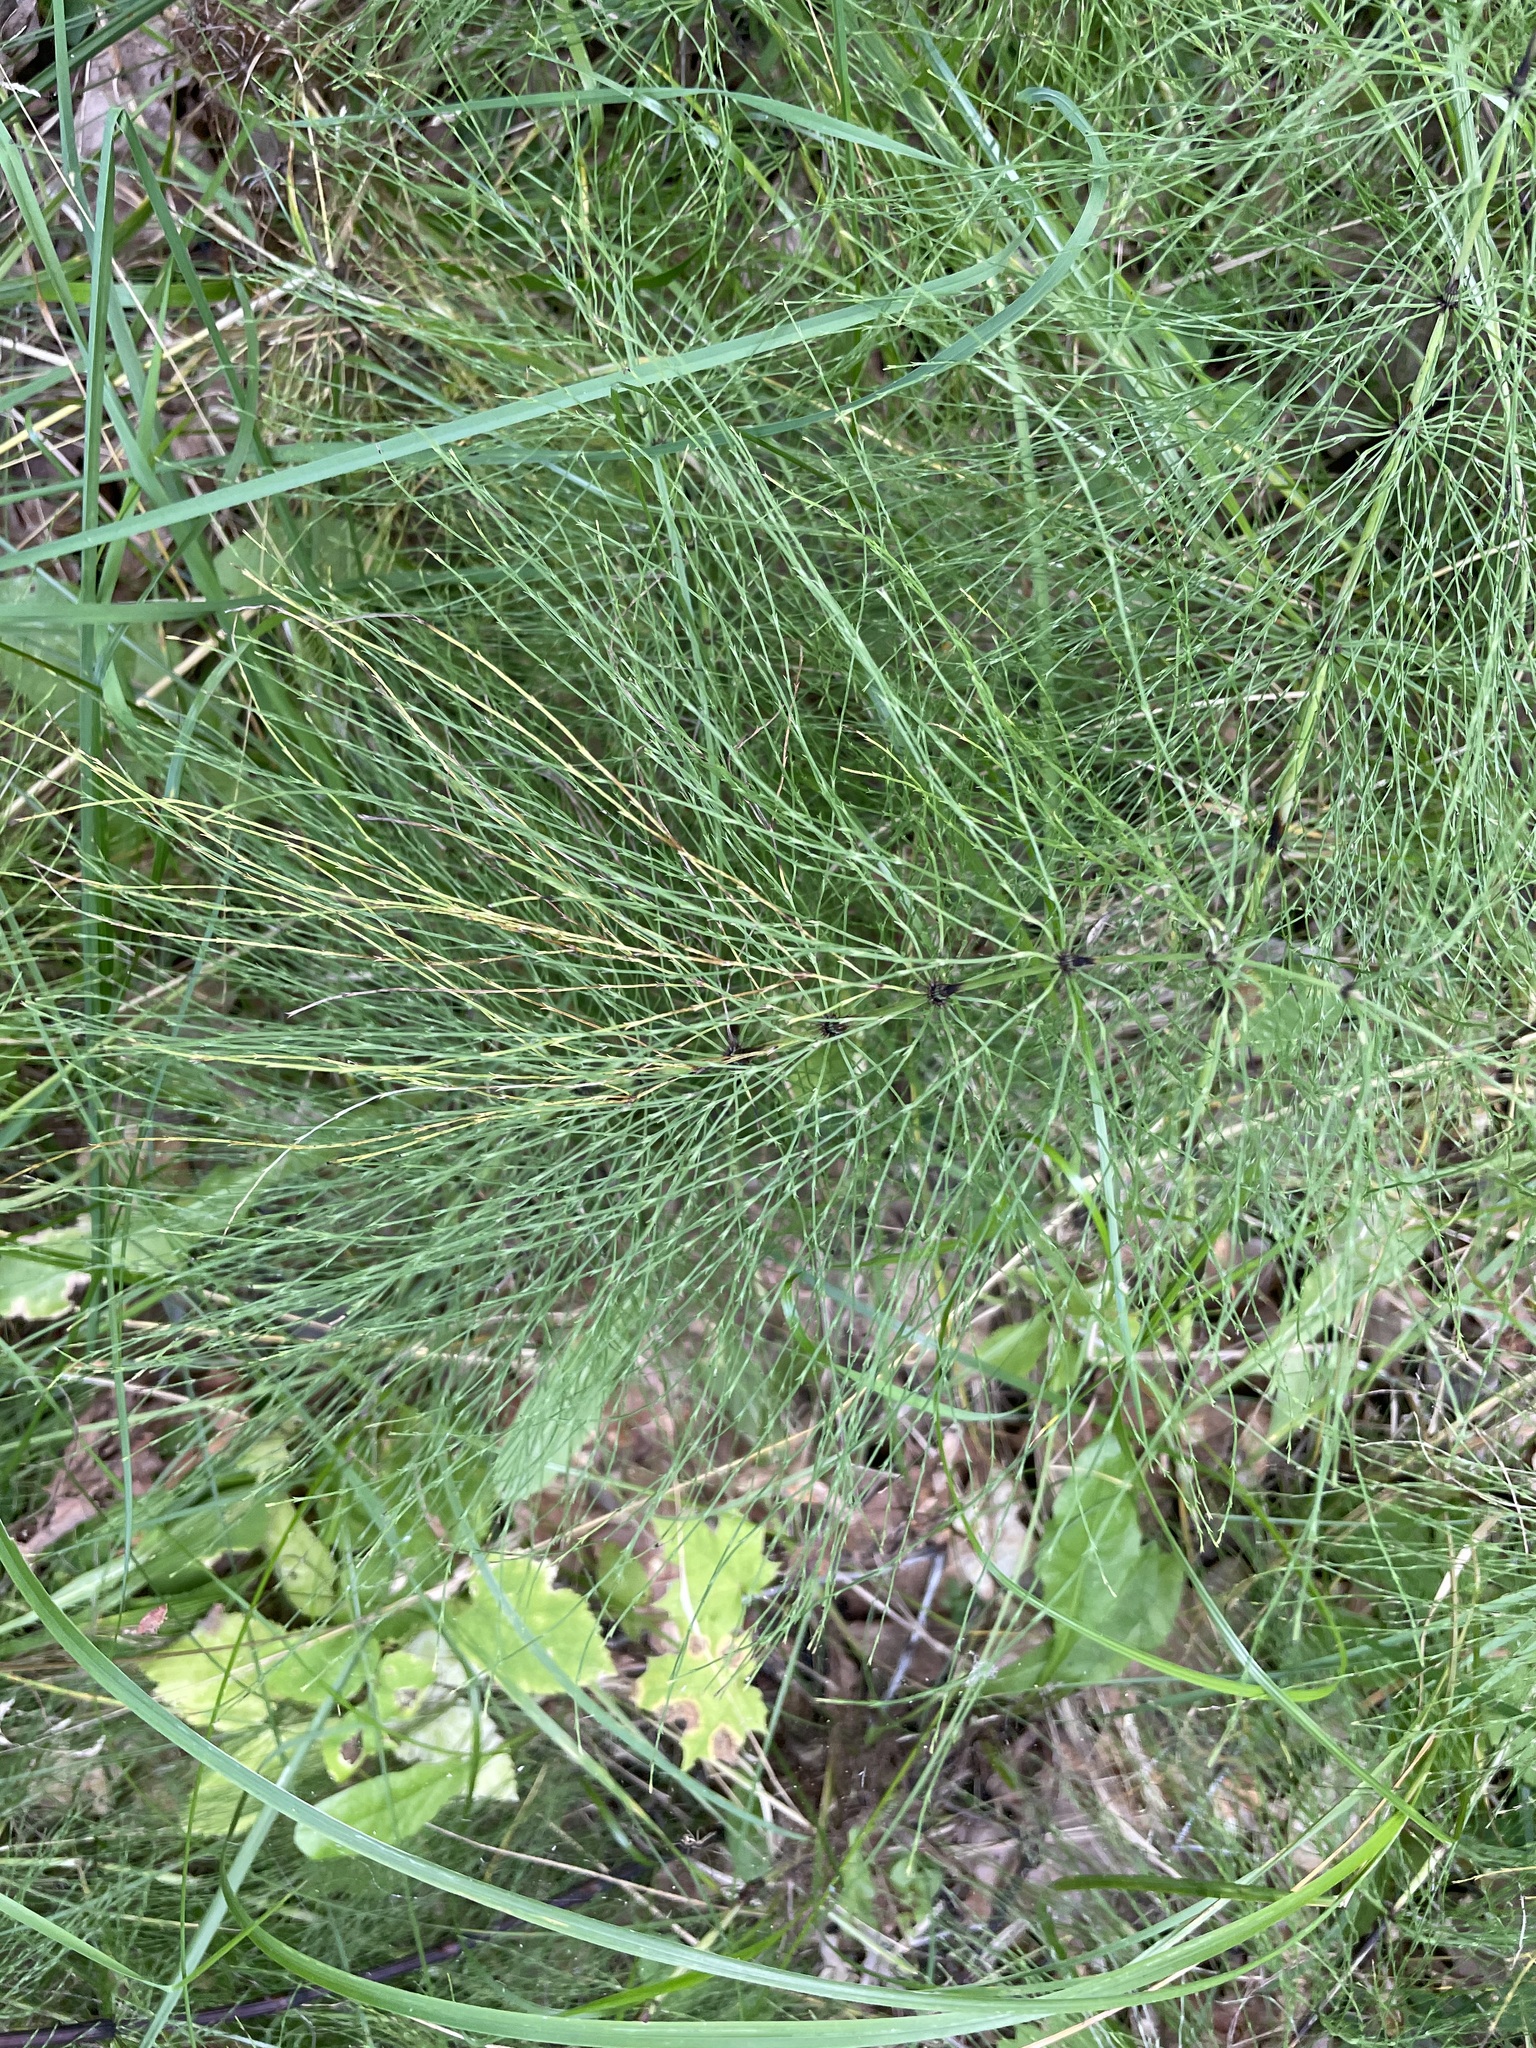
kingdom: Plantae
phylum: Tracheophyta
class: Polypodiopsida
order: Equisetales
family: Equisetaceae
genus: Equisetum
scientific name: Equisetum sylvaticum
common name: Wood horsetail
